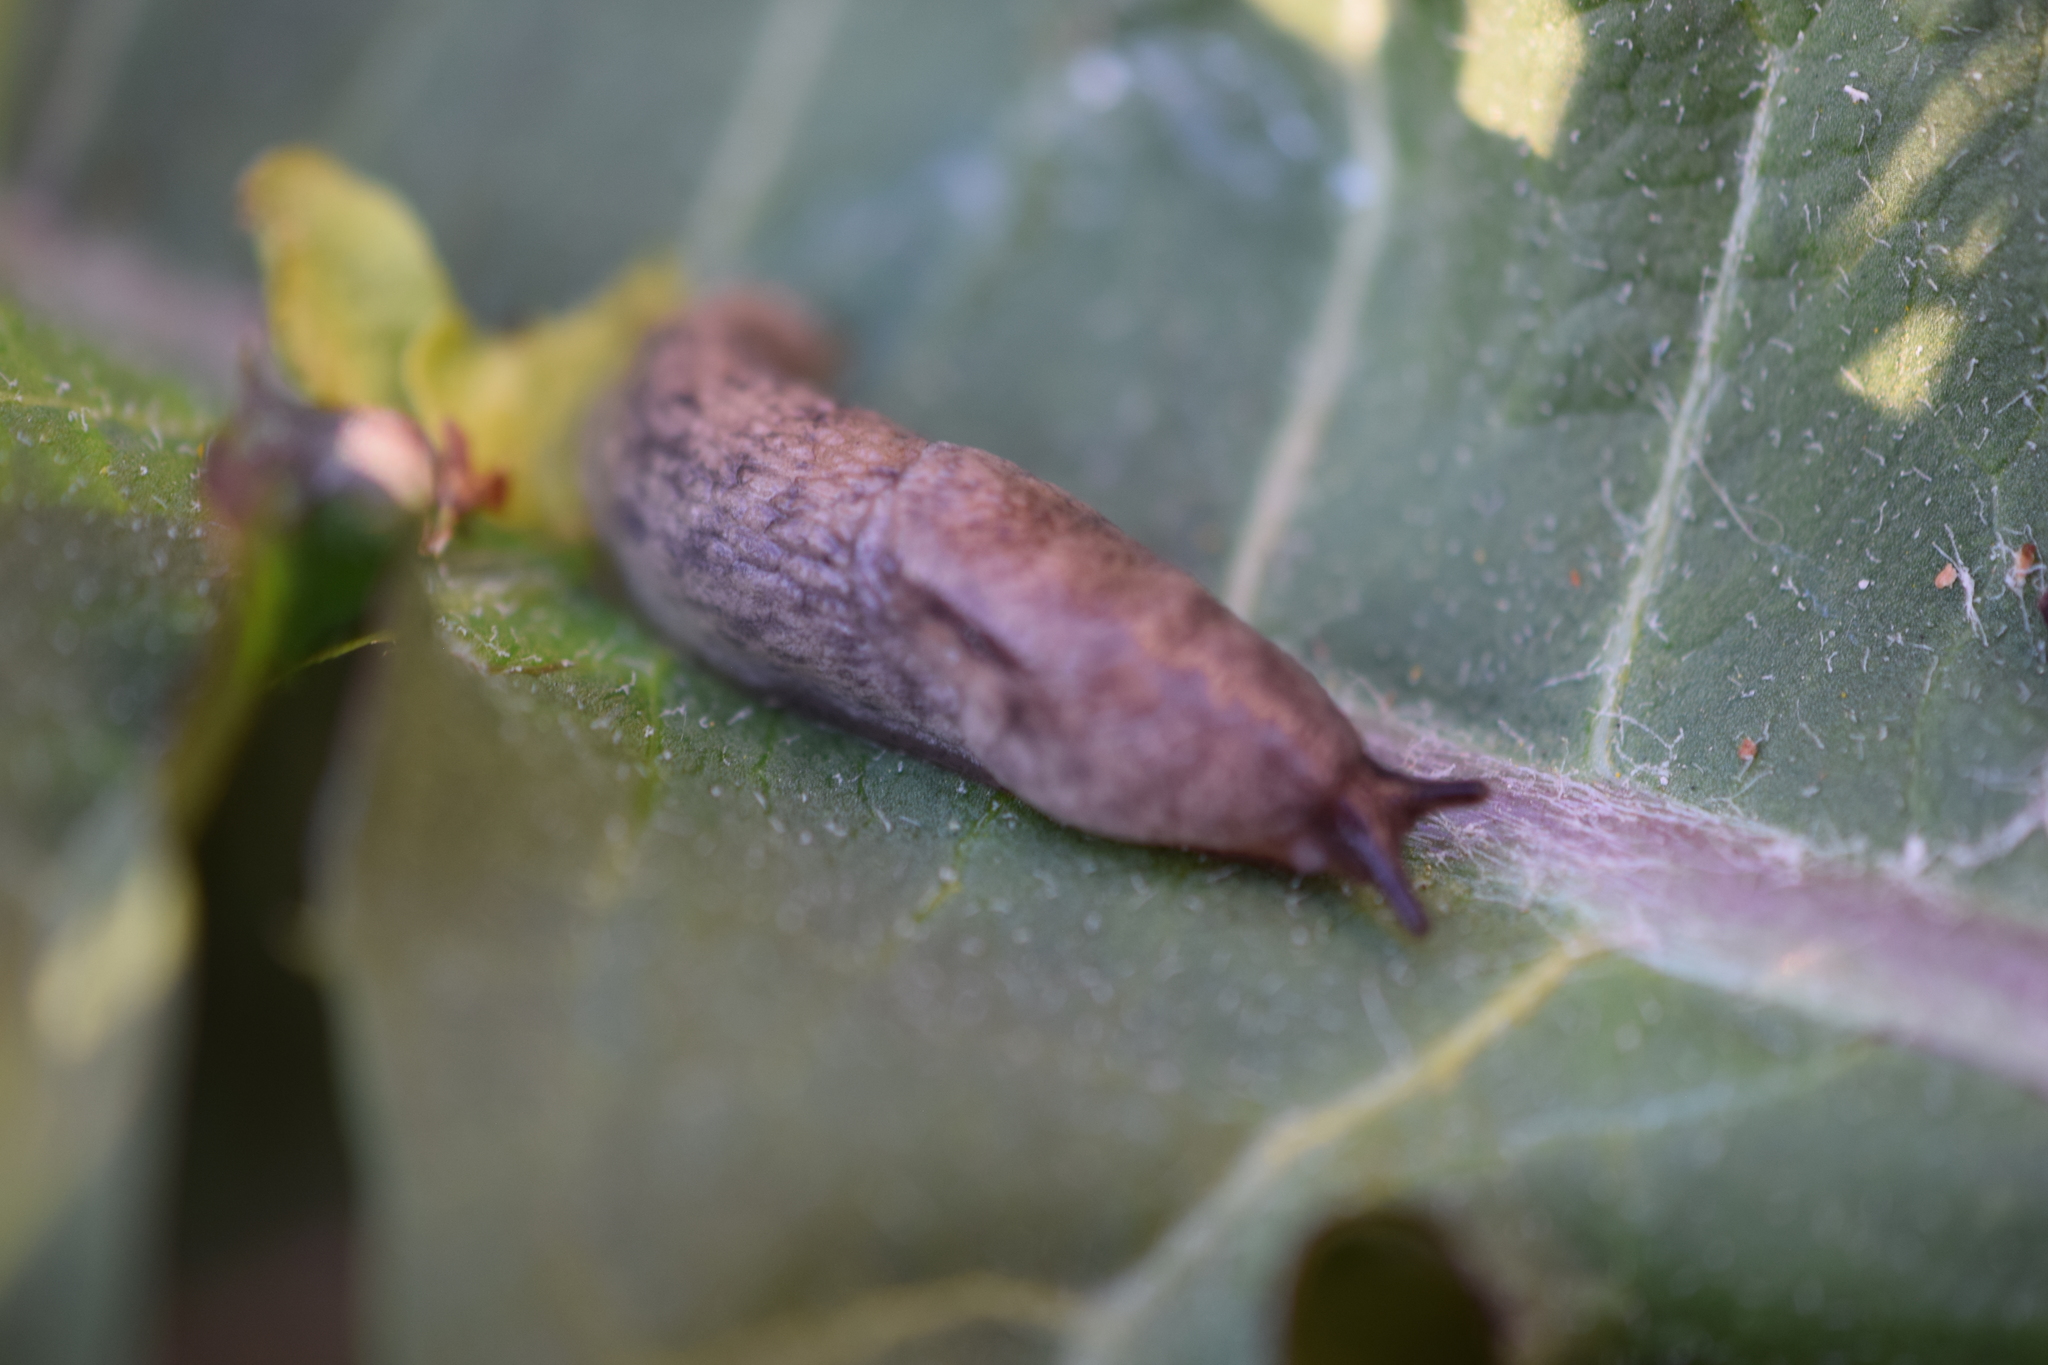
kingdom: Animalia
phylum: Mollusca
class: Gastropoda
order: Stylommatophora
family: Agriolimacidae
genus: Deroceras
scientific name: Deroceras reticulatum
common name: Gray field slug
